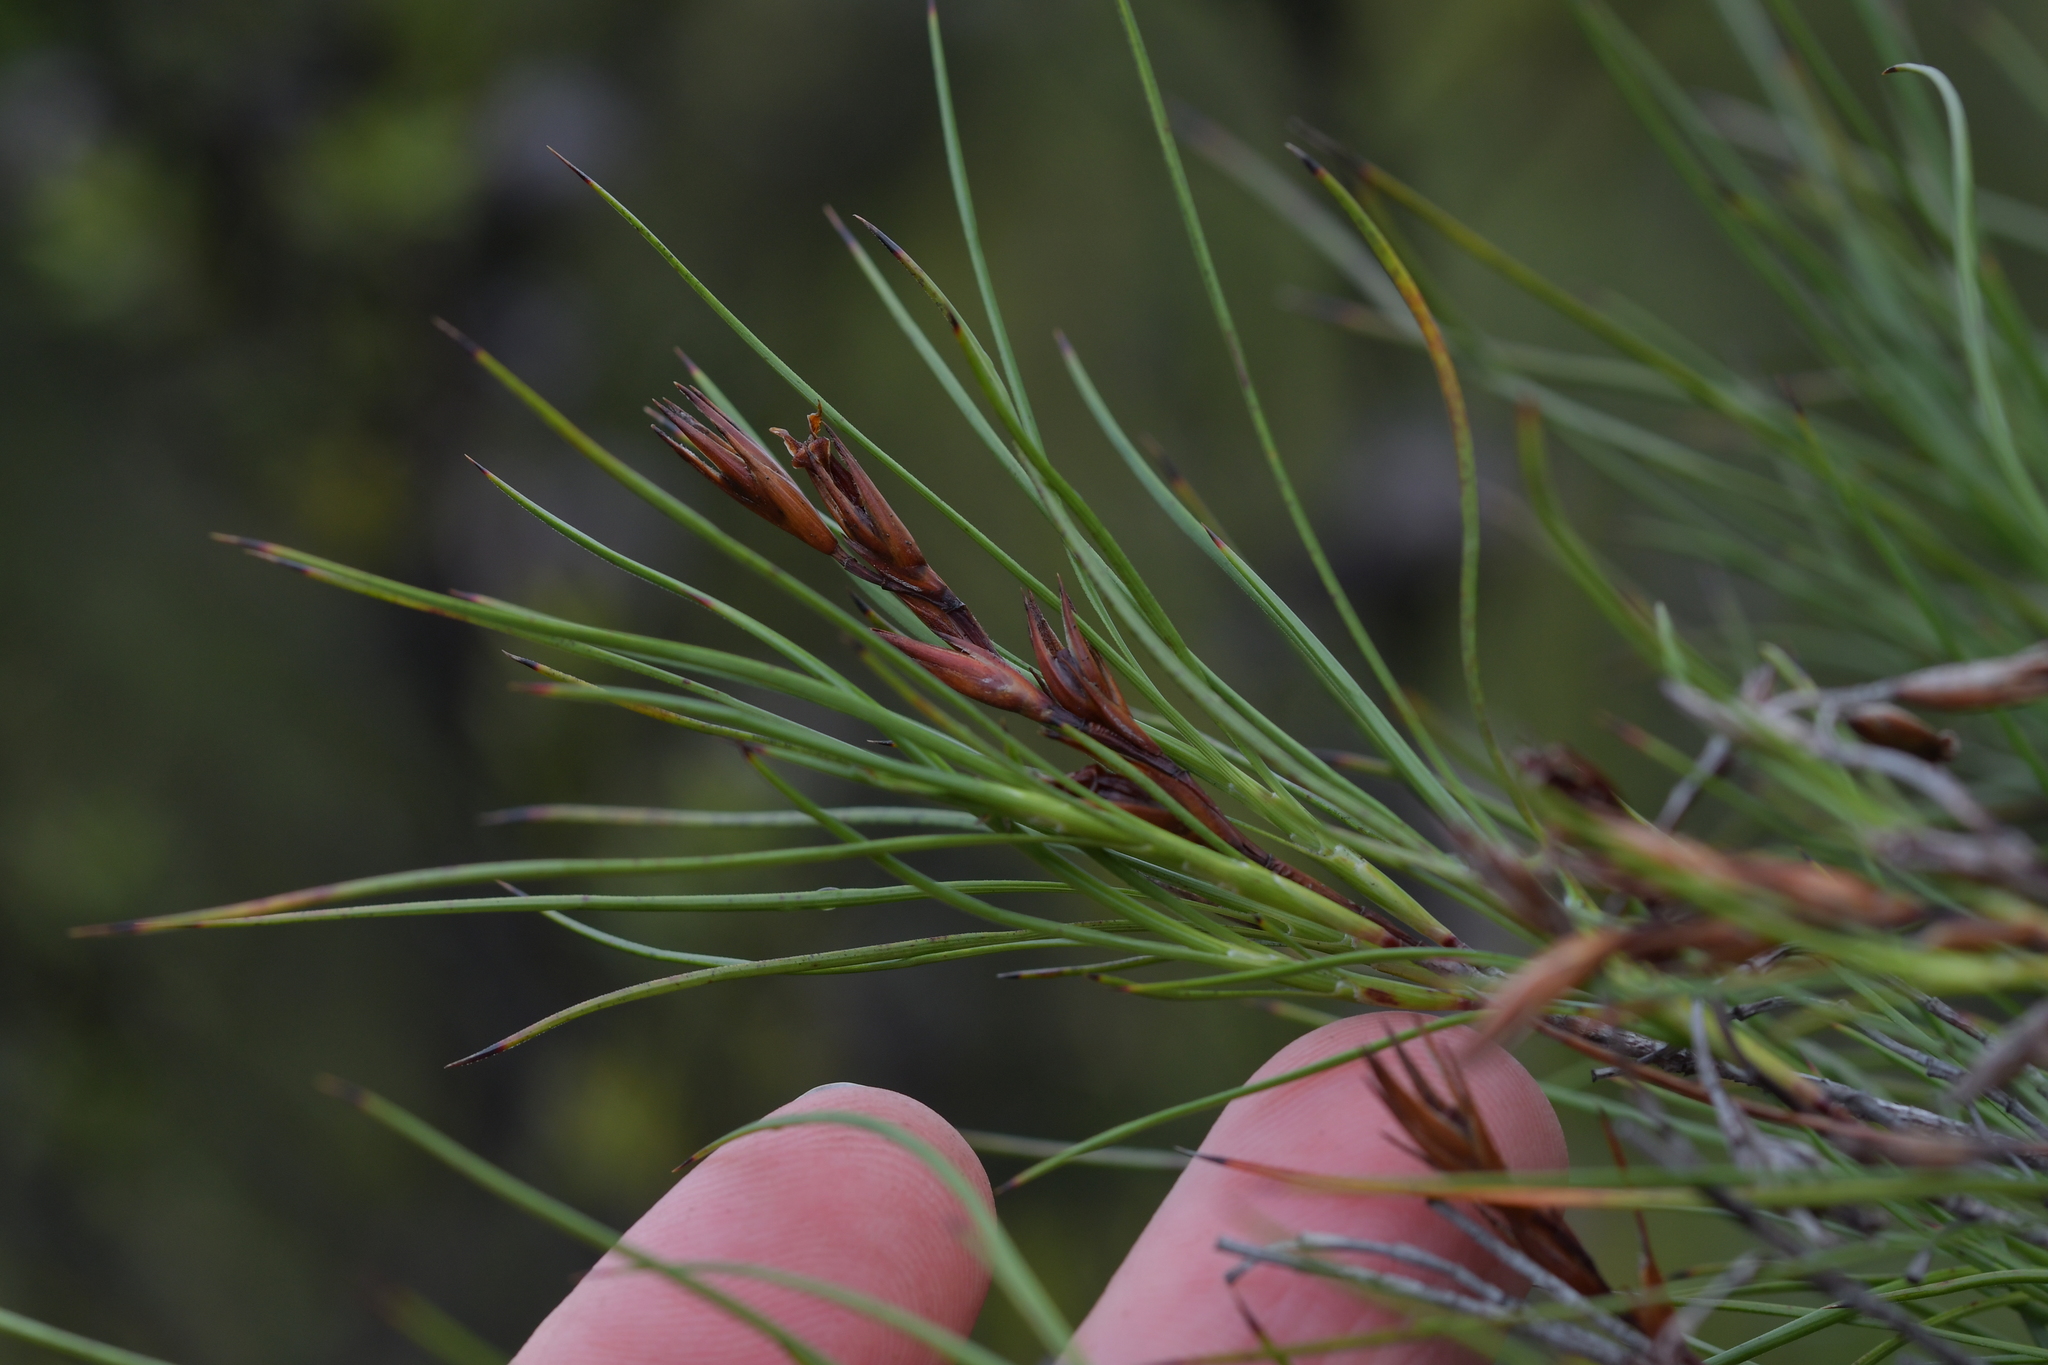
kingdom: Plantae
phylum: Tracheophyta
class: Magnoliopsida
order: Ericales
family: Ericaceae
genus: Dracophyllum
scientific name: Dracophyllum lessonianum
